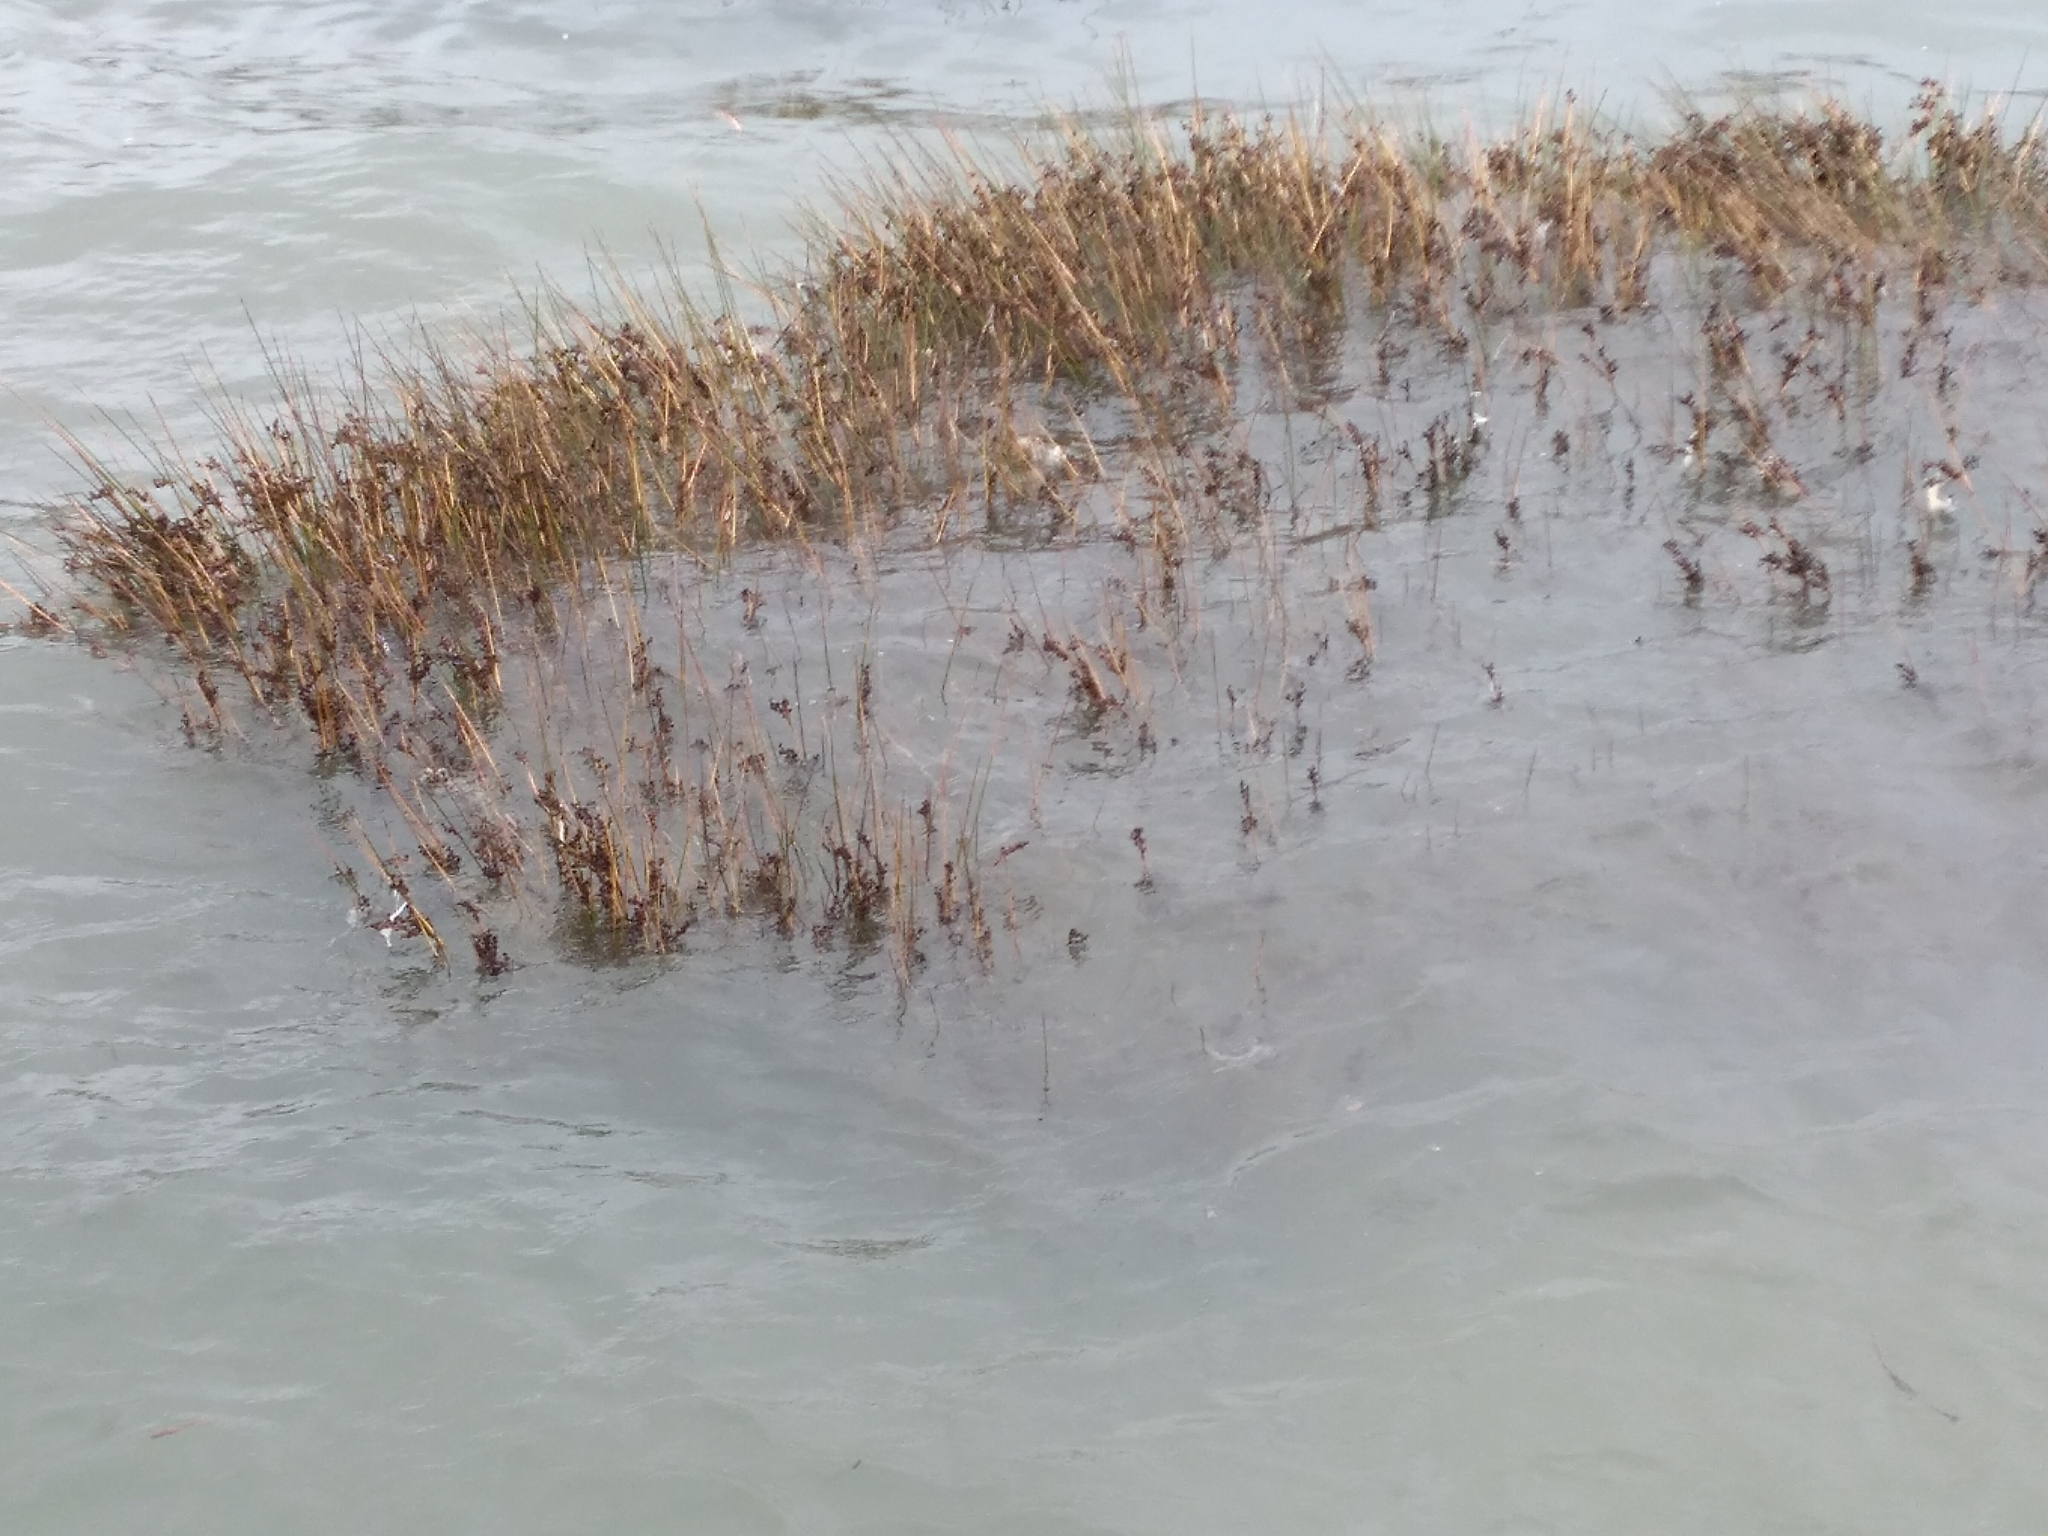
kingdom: Plantae
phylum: Tracheophyta
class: Liliopsida
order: Poales
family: Juncaceae
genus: Juncus
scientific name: Juncus kraussii
